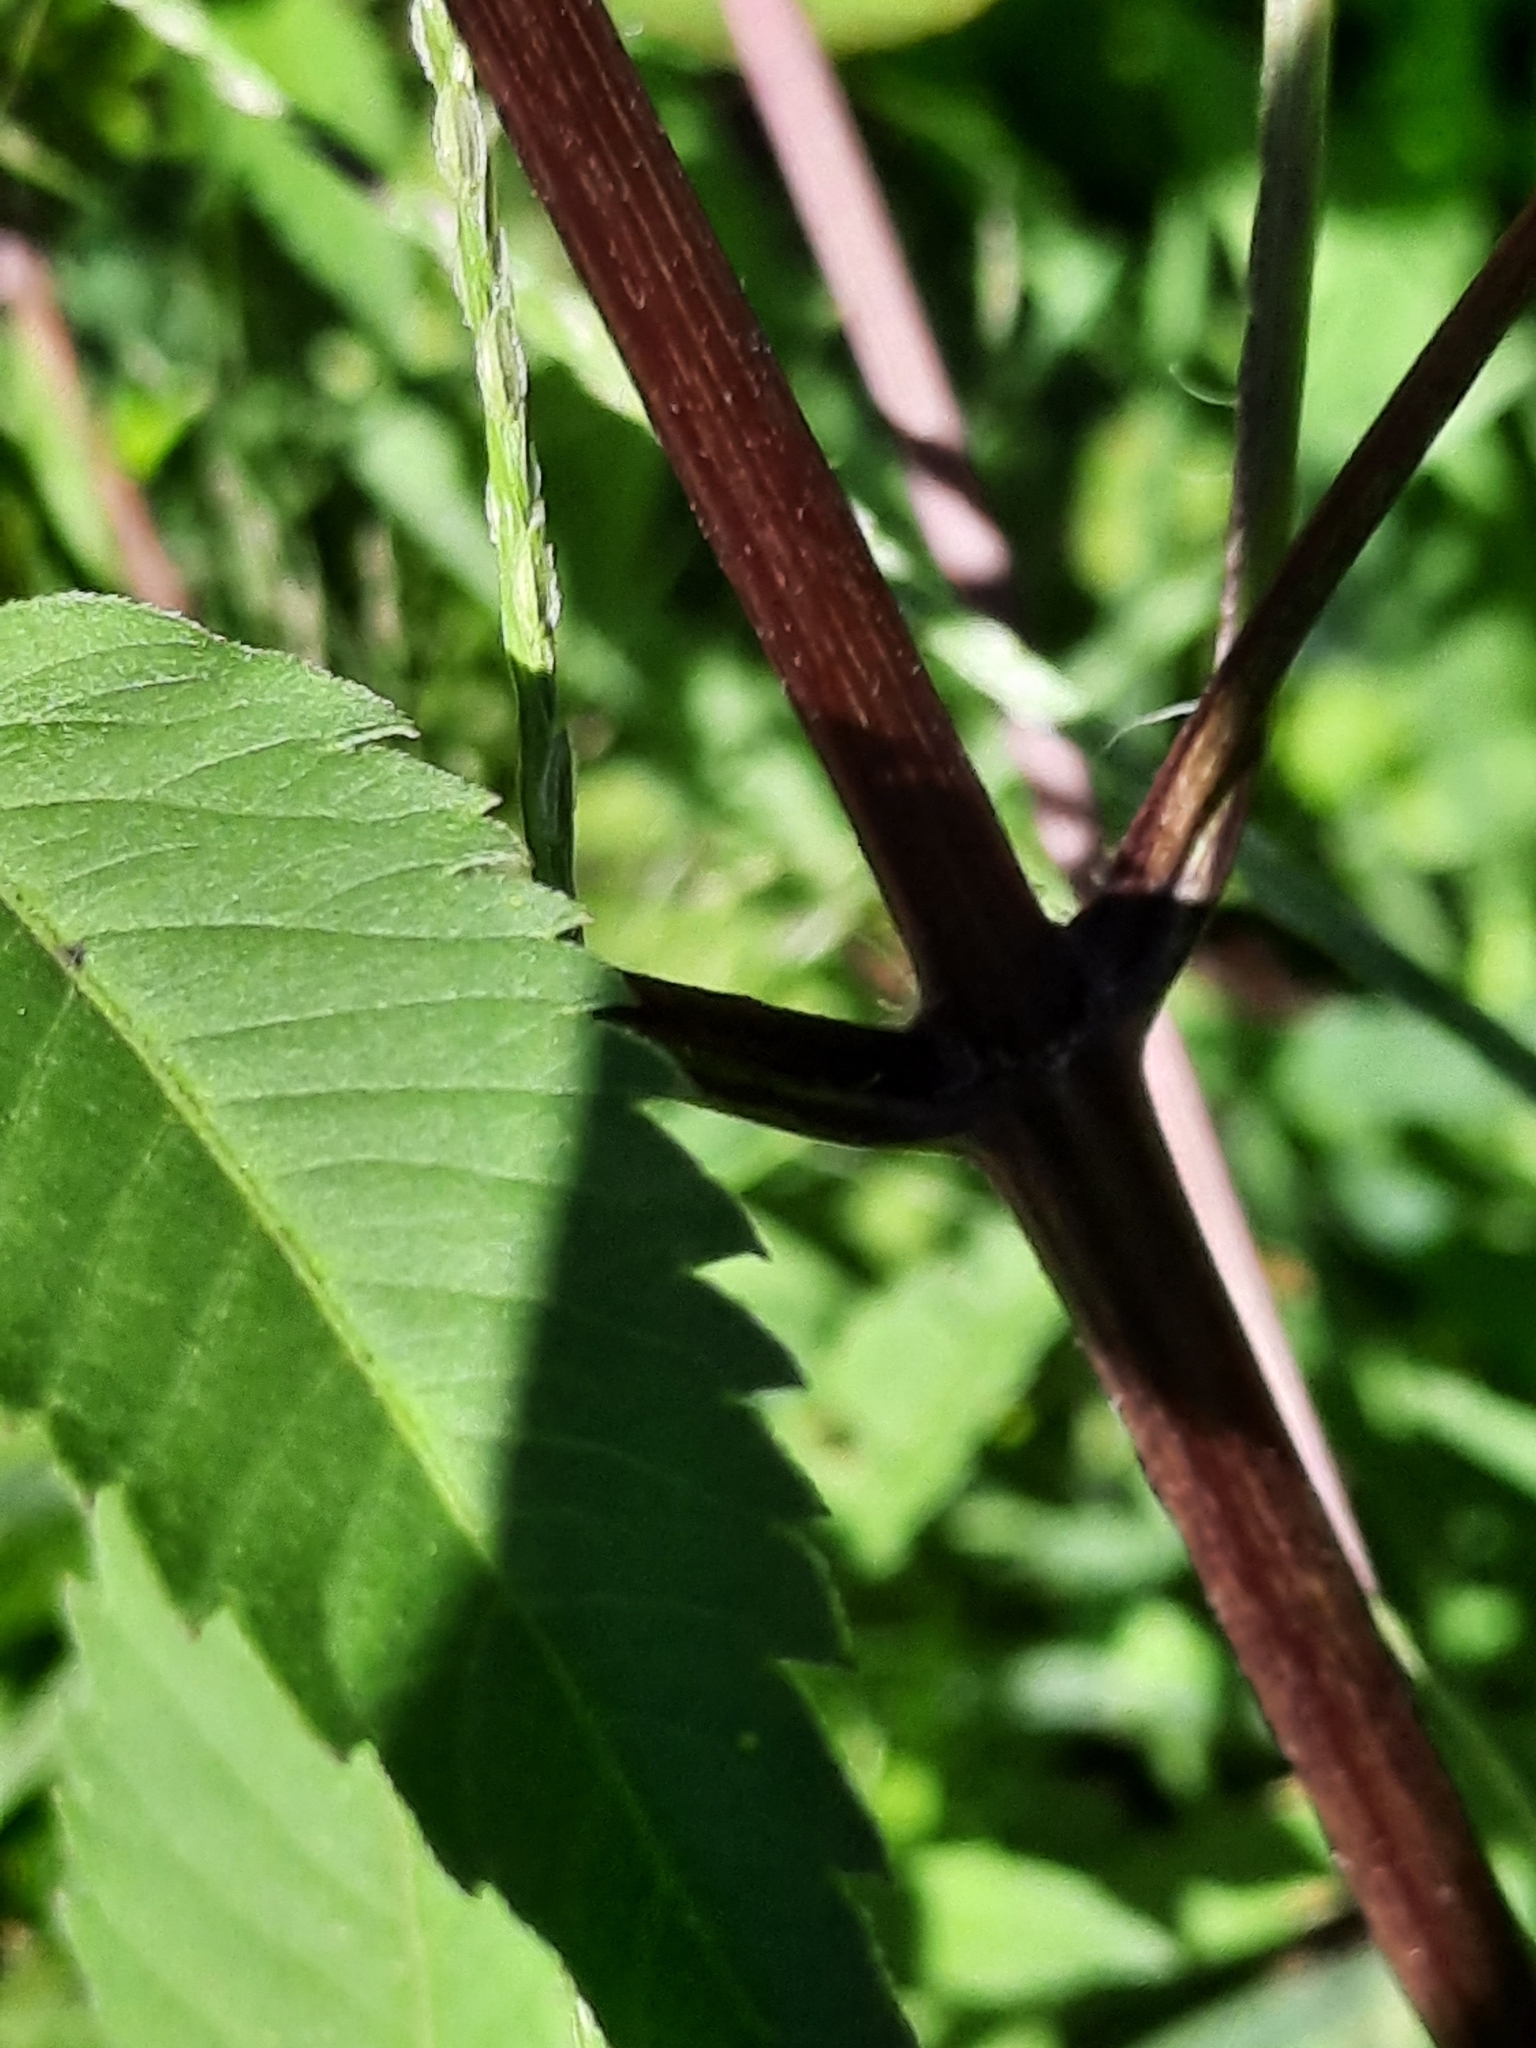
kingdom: Plantae
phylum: Tracheophyta
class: Magnoliopsida
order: Asterales
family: Asteraceae
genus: Bidens
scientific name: Bidens frondosa
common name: Beggarticks
